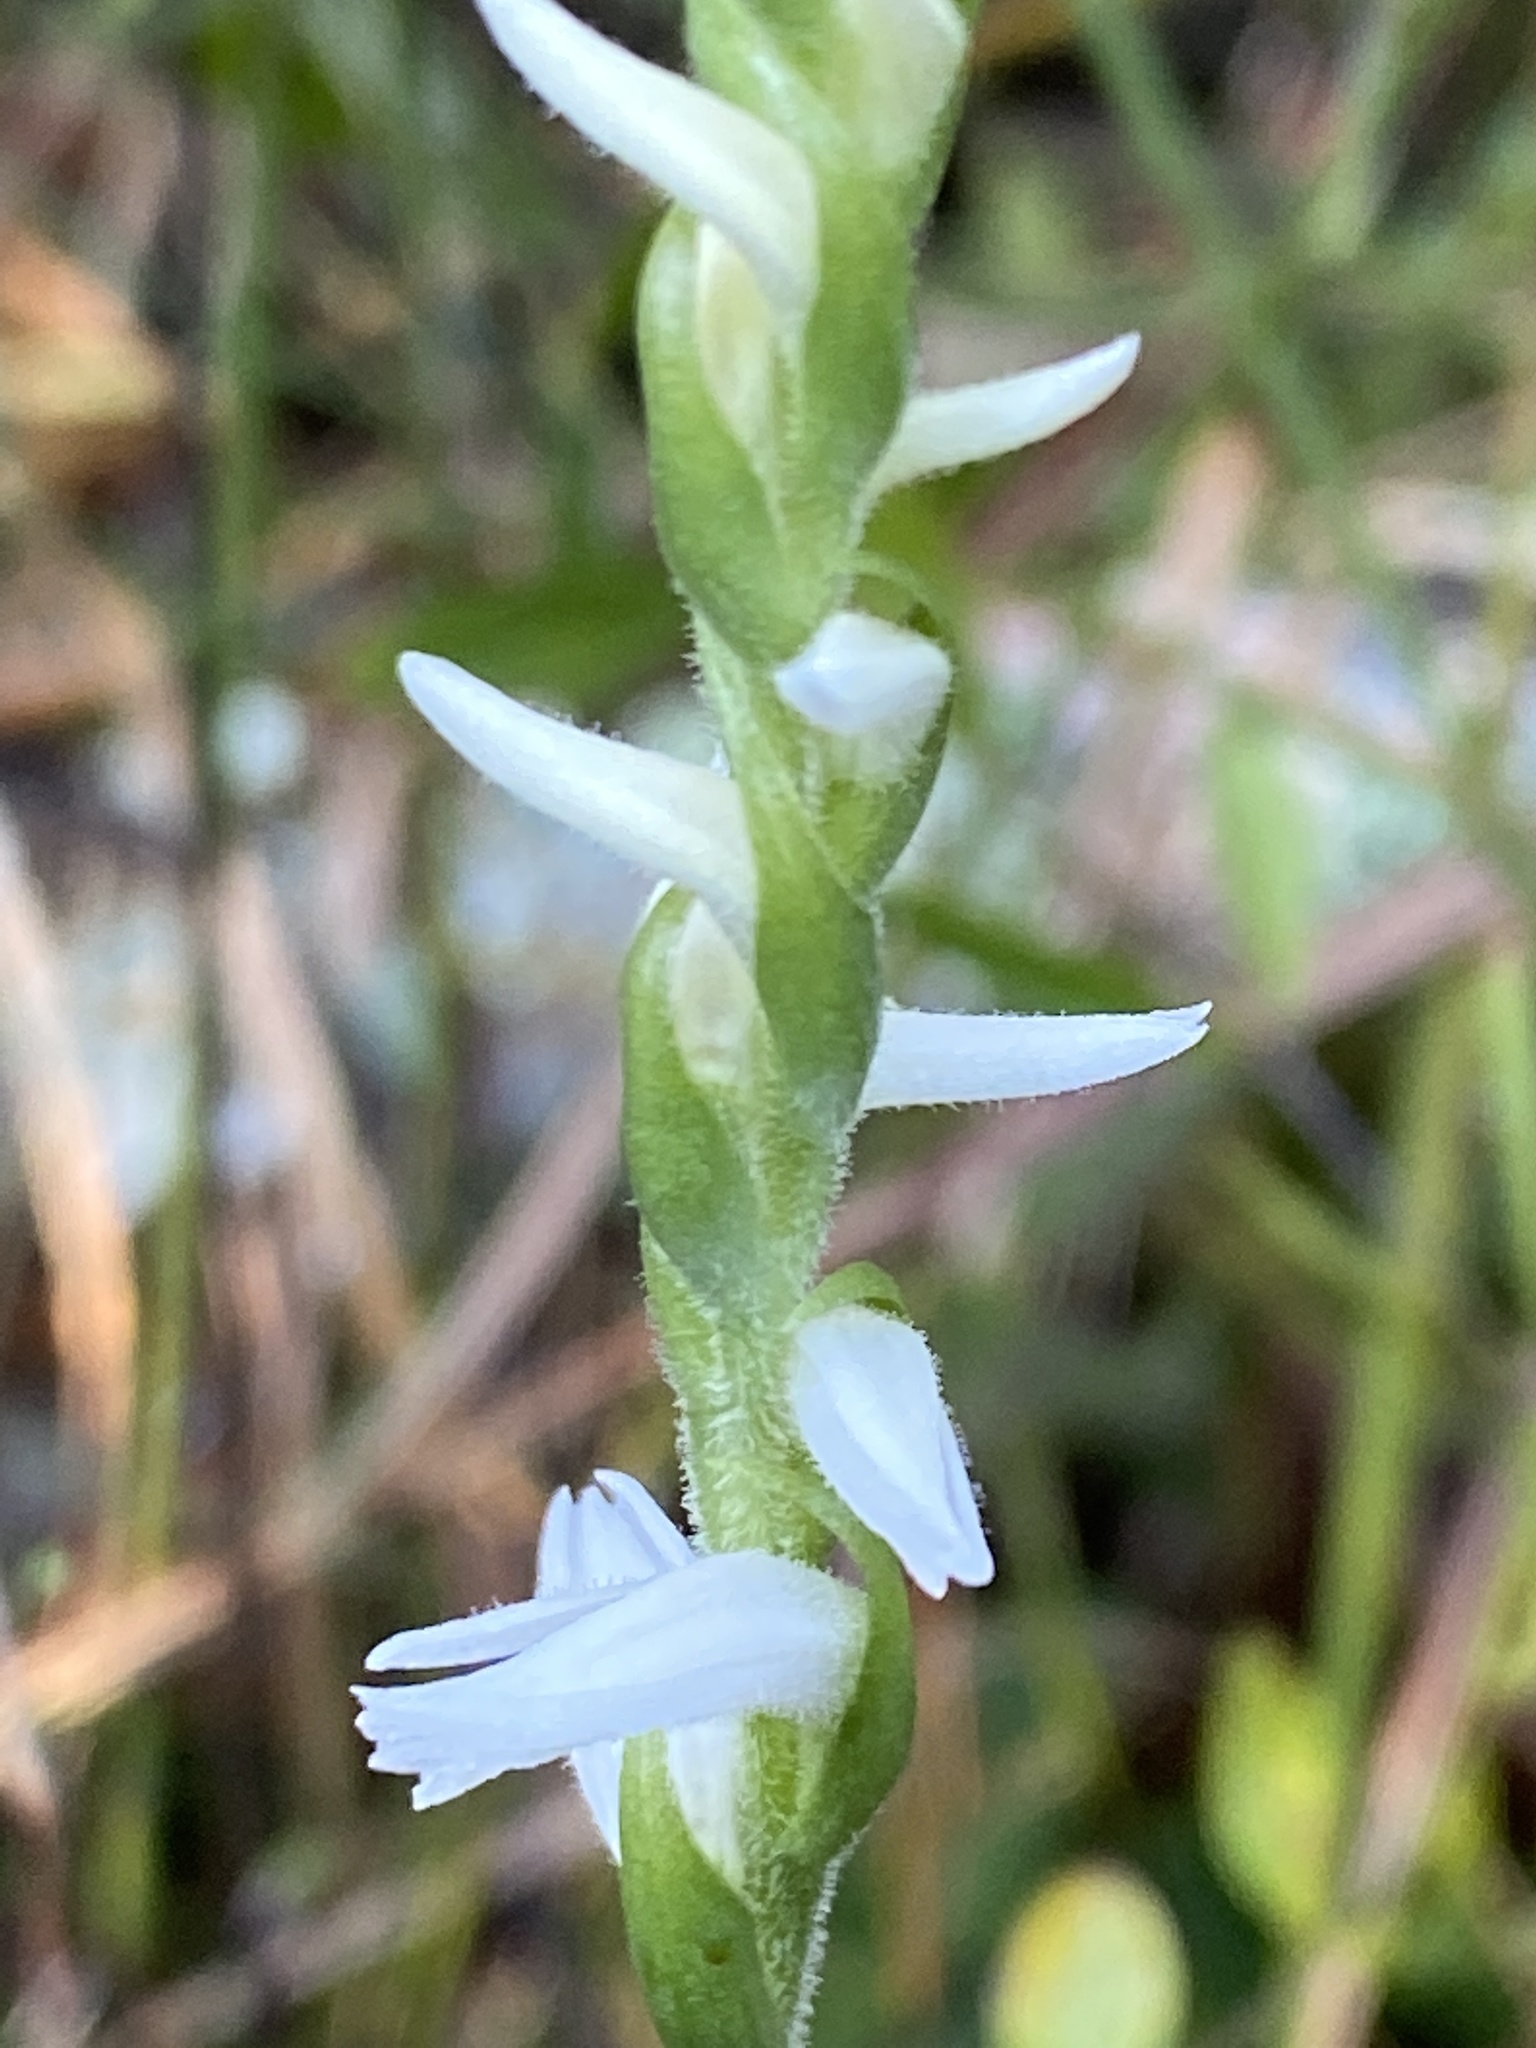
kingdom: Plantae
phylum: Tracheophyta
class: Liliopsida
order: Asparagales
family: Orchidaceae
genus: Spiranthes
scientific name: Spiranthes cernua
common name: Dropping ladies'-tresses
